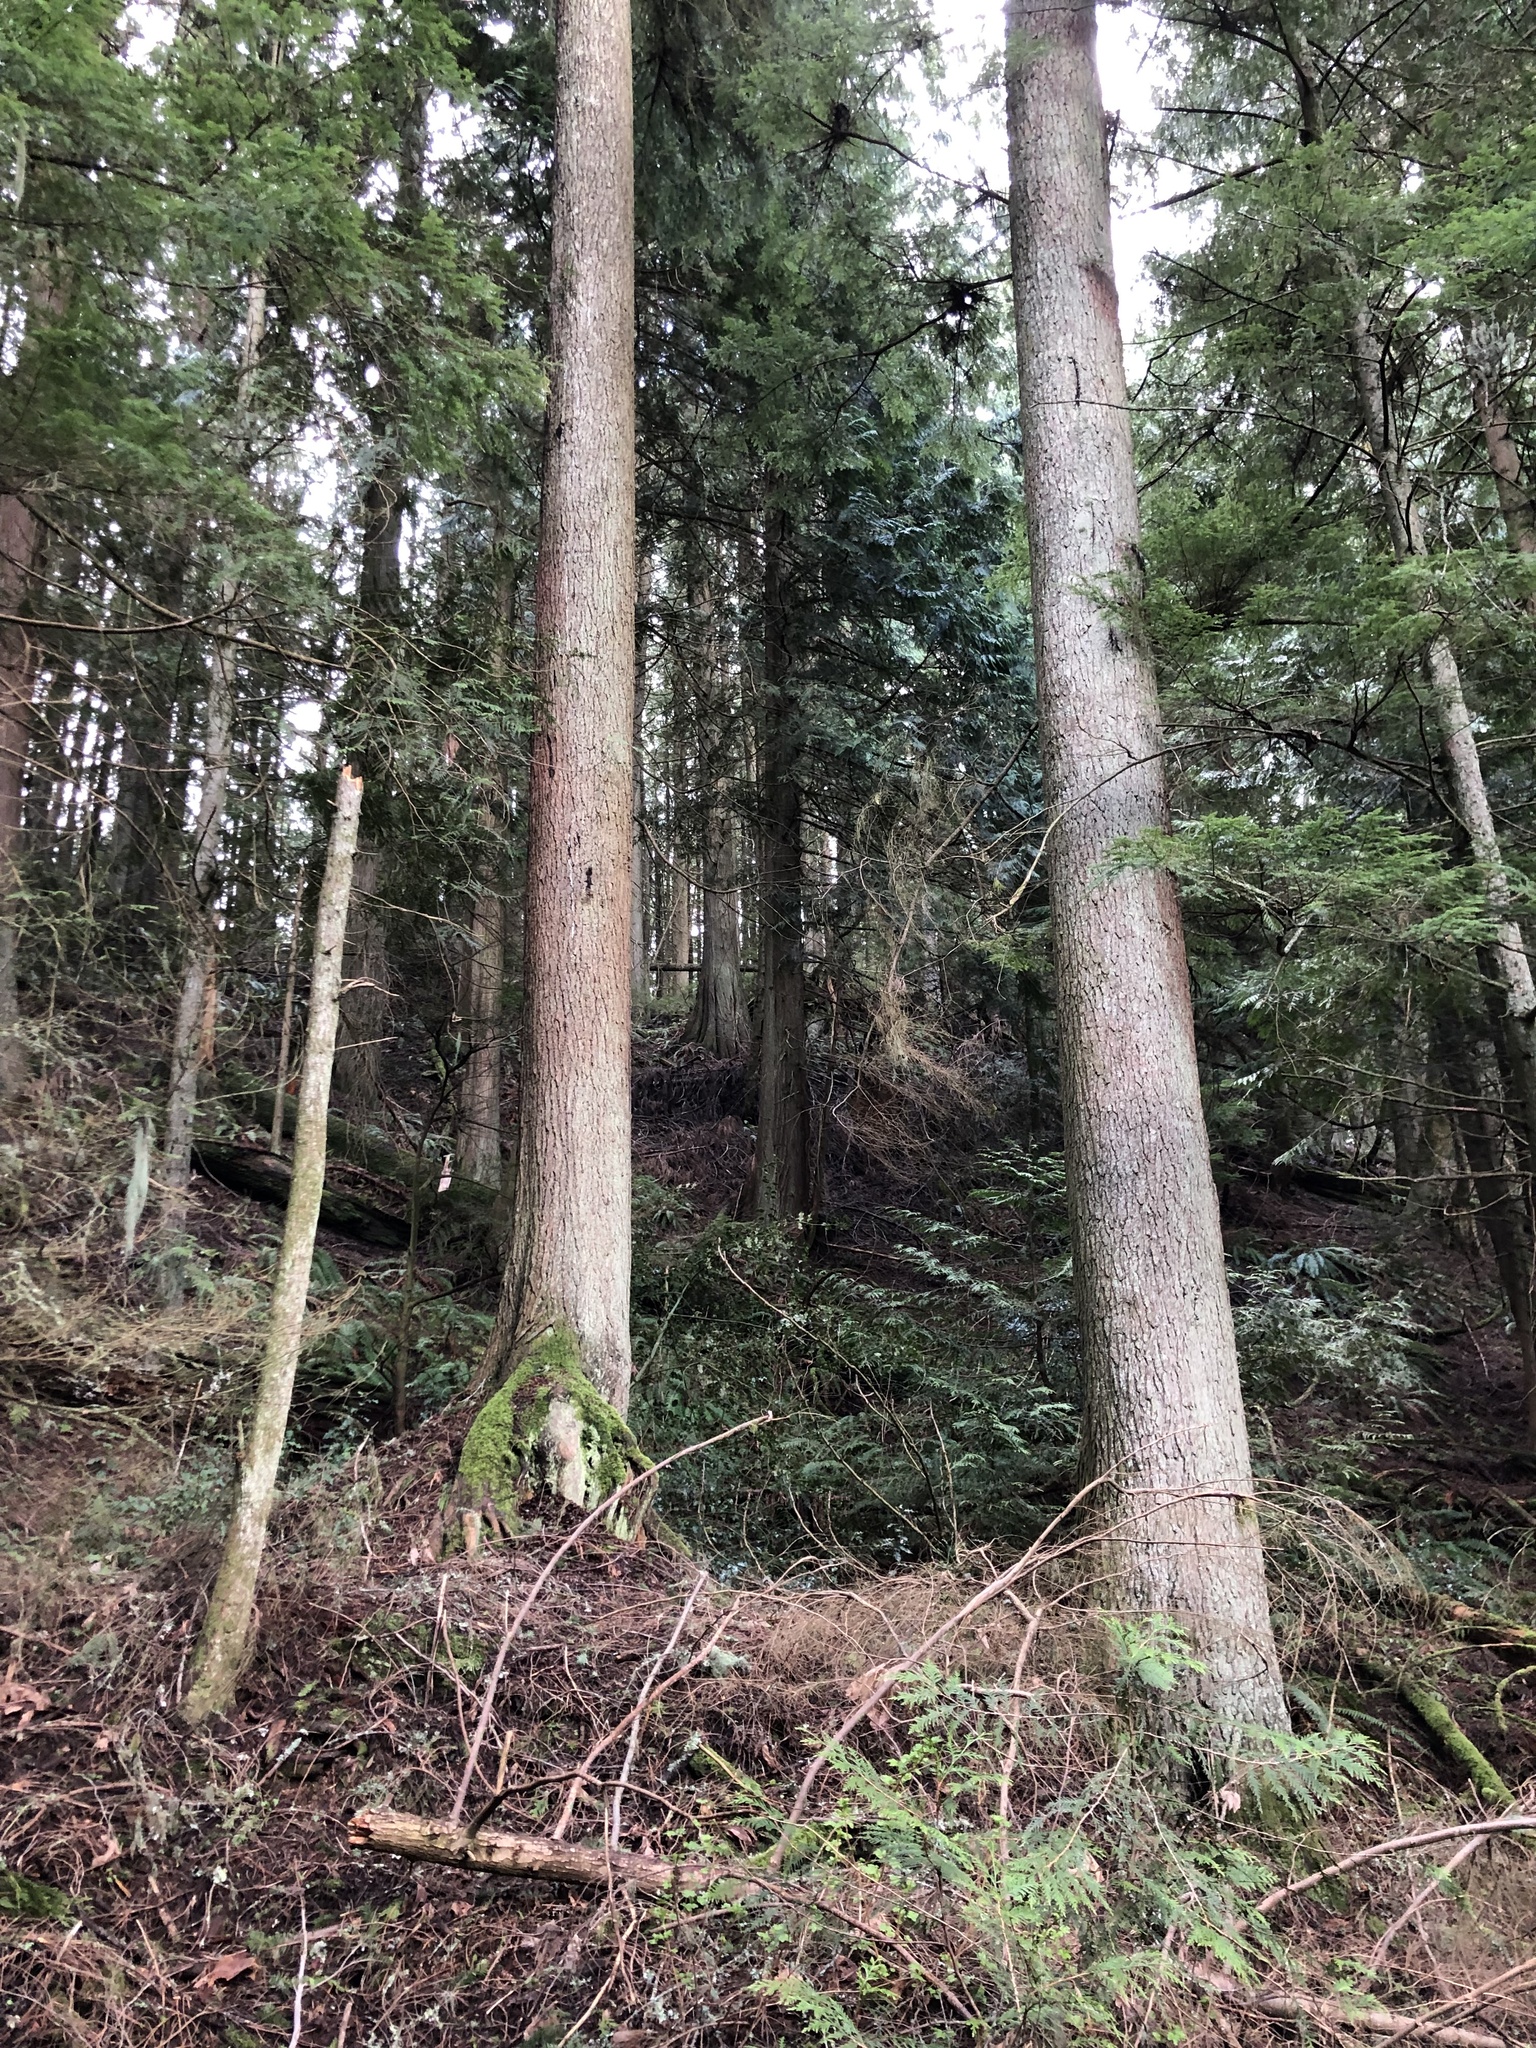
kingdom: Plantae
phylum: Tracheophyta
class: Pinopsida
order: Pinales
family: Pinaceae
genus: Tsuga
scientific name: Tsuga heterophylla
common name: Western hemlock
